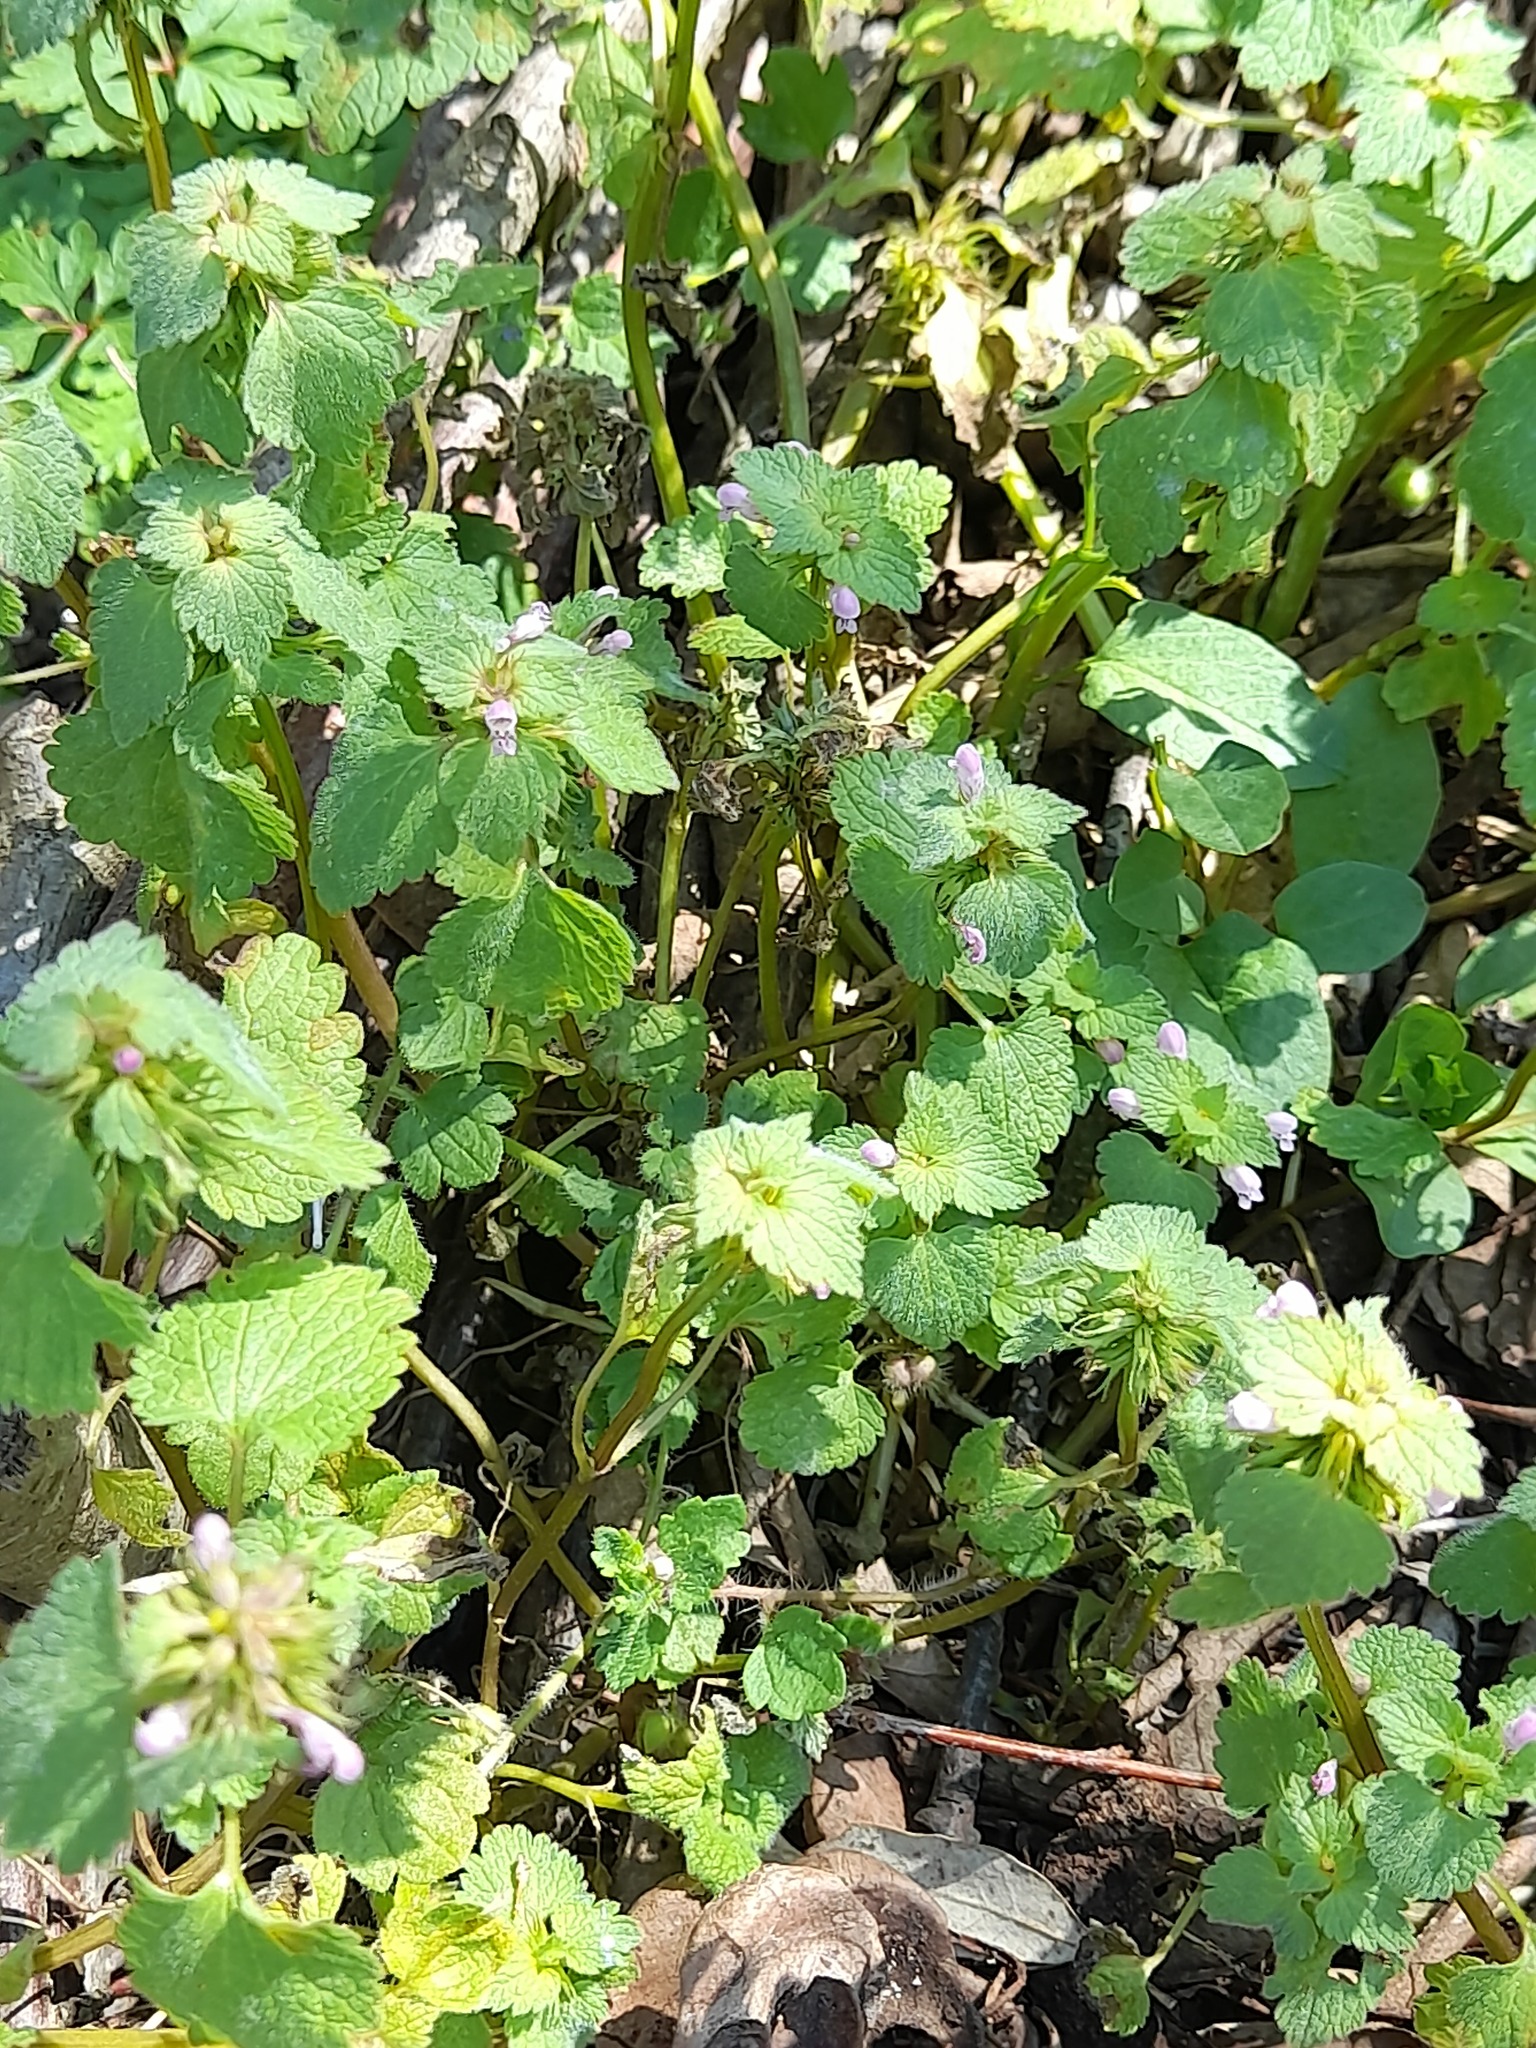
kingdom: Plantae
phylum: Tracheophyta
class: Magnoliopsida
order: Lamiales
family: Lamiaceae
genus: Lamium
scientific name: Lamium purpureum
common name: Red dead-nettle
